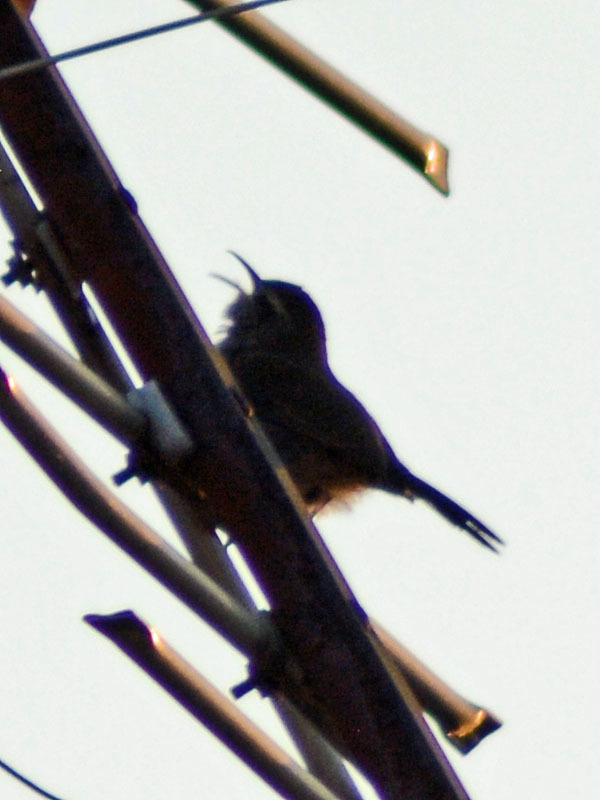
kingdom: Animalia
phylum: Chordata
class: Aves
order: Passeriformes
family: Troglodytidae
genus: Thryomanes
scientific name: Thryomanes bewickii
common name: Bewick's wren
